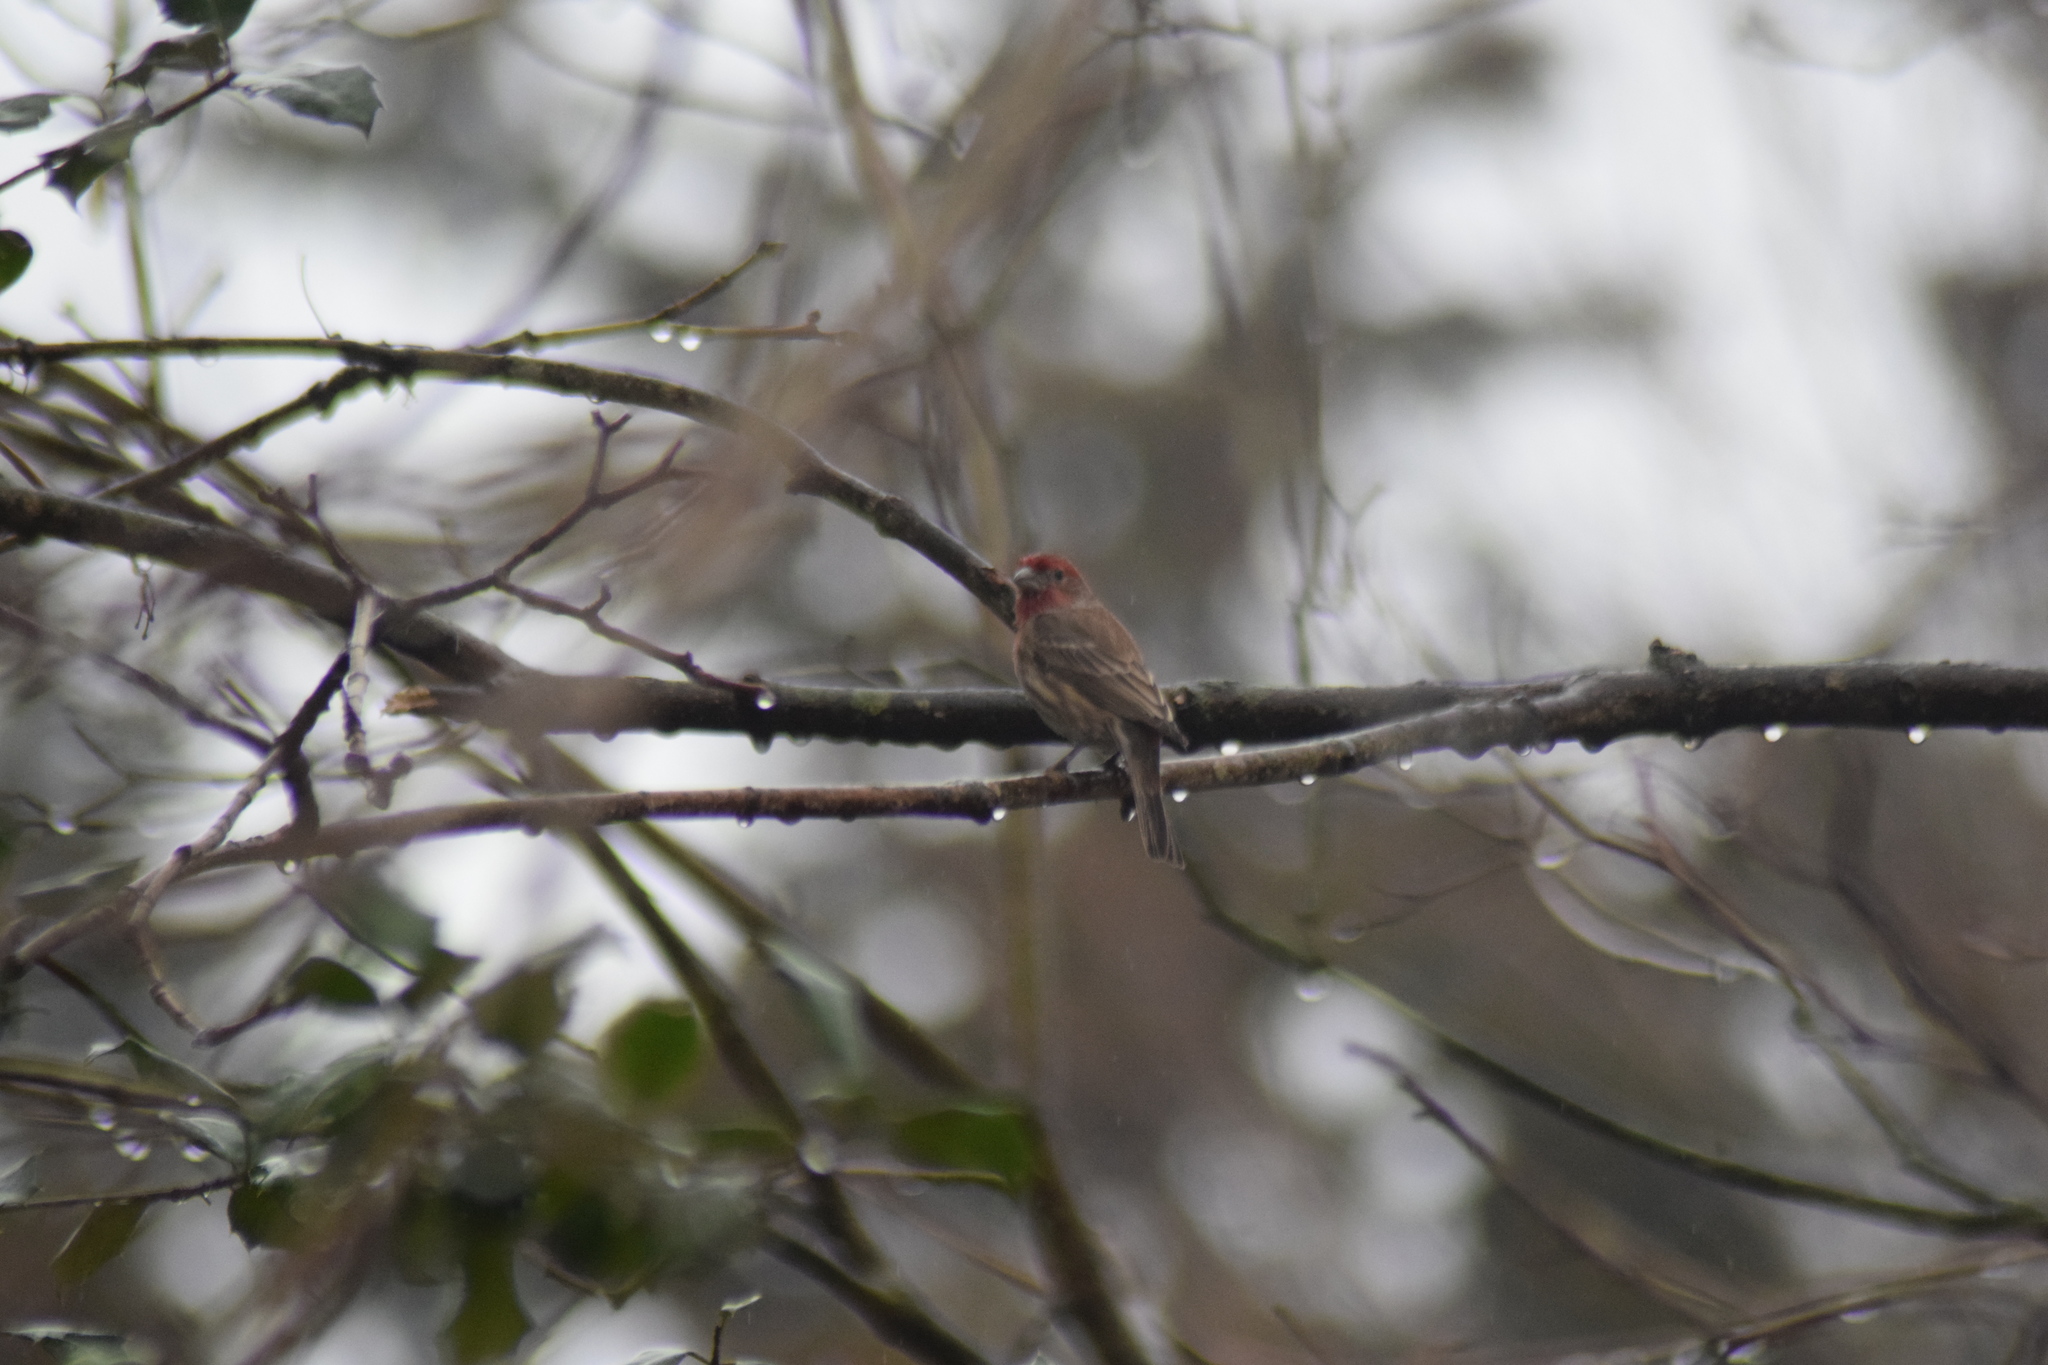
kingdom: Animalia
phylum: Chordata
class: Aves
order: Passeriformes
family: Fringillidae
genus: Haemorhous
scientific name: Haemorhous mexicanus
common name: House finch
